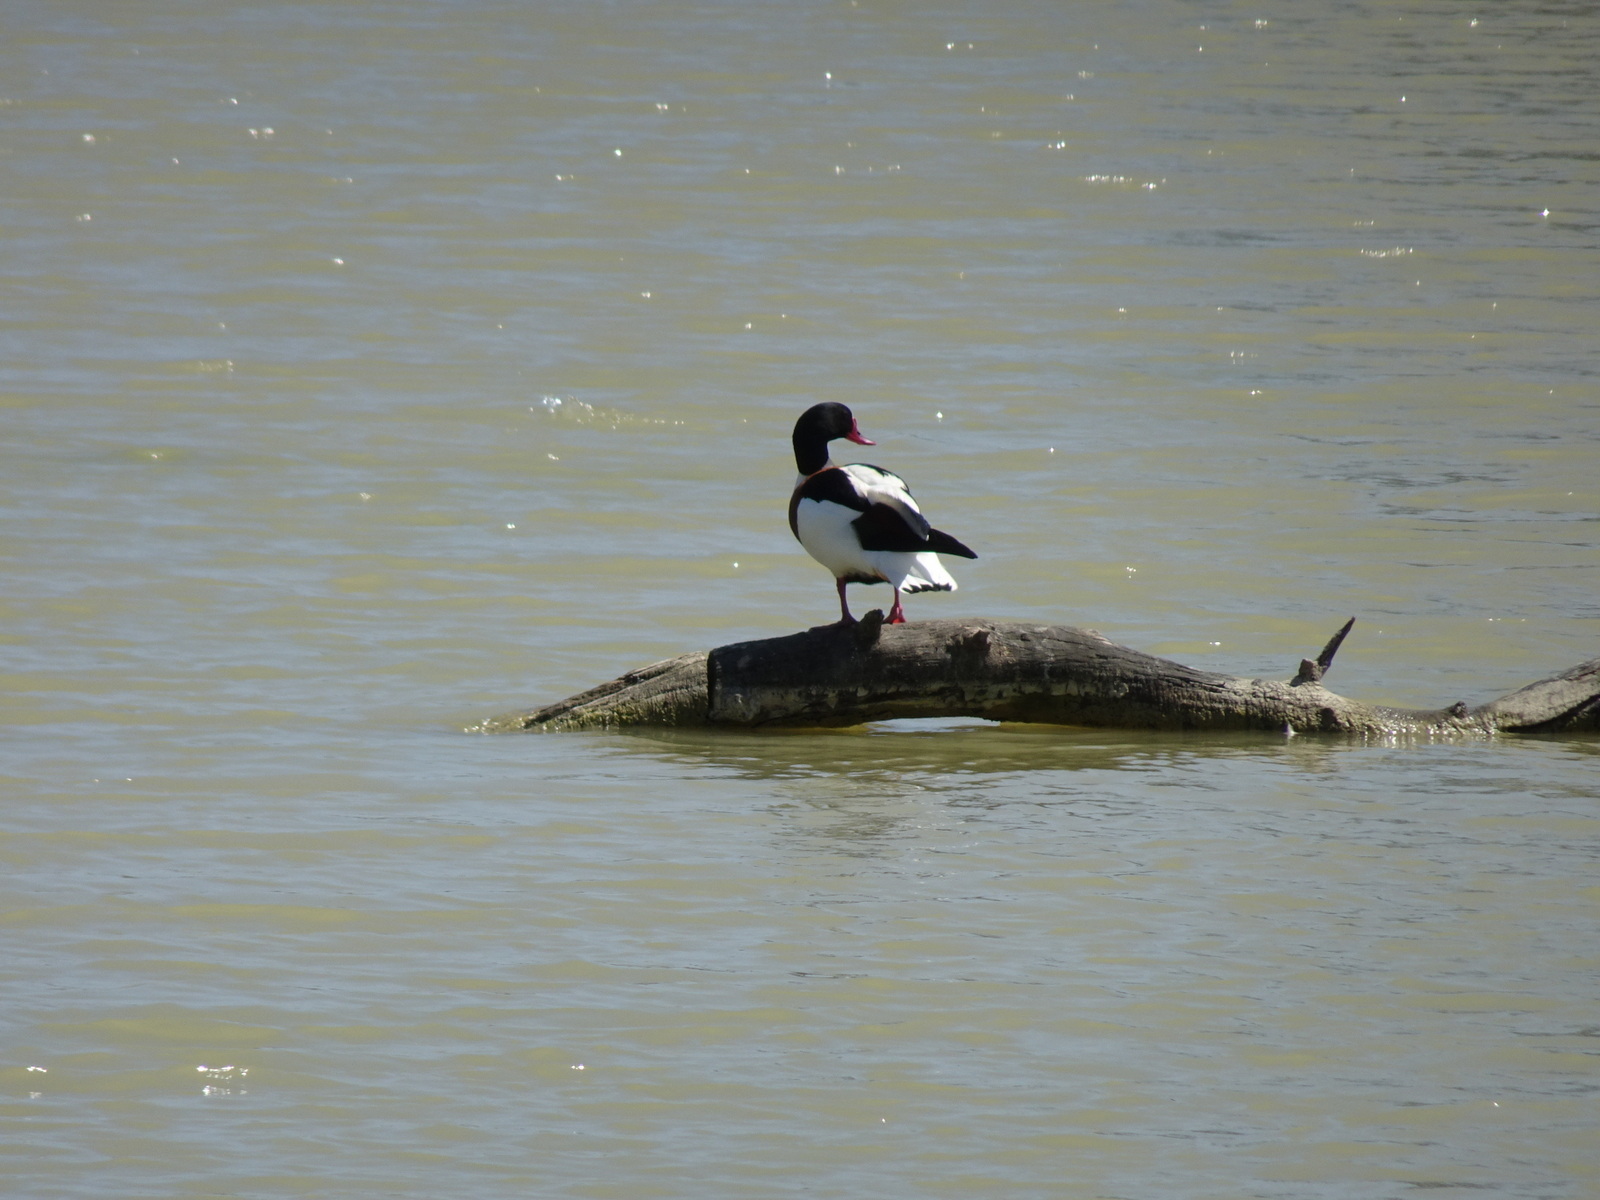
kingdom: Animalia
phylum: Chordata
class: Aves
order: Anseriformes
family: Anatidae
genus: Tadorna
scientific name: Tadorna tadorna
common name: Common shelduck
